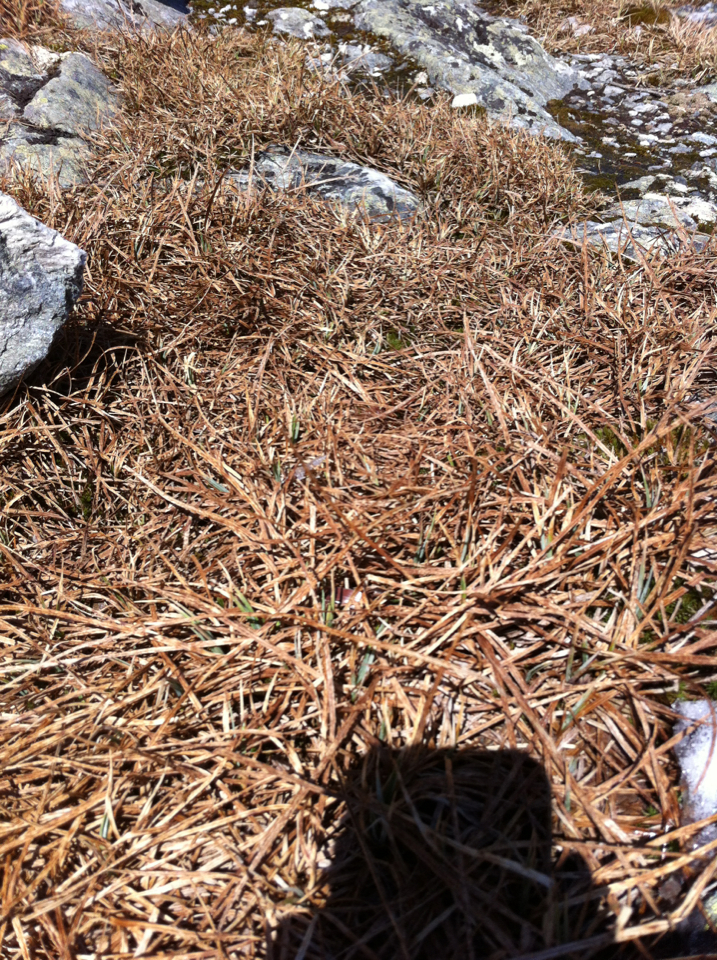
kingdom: Plantae
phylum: Tracheophyta
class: Liliopsida
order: Poales
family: Cyperaceae
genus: Carex
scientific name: Carex bigelowii
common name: Stiff sedge
